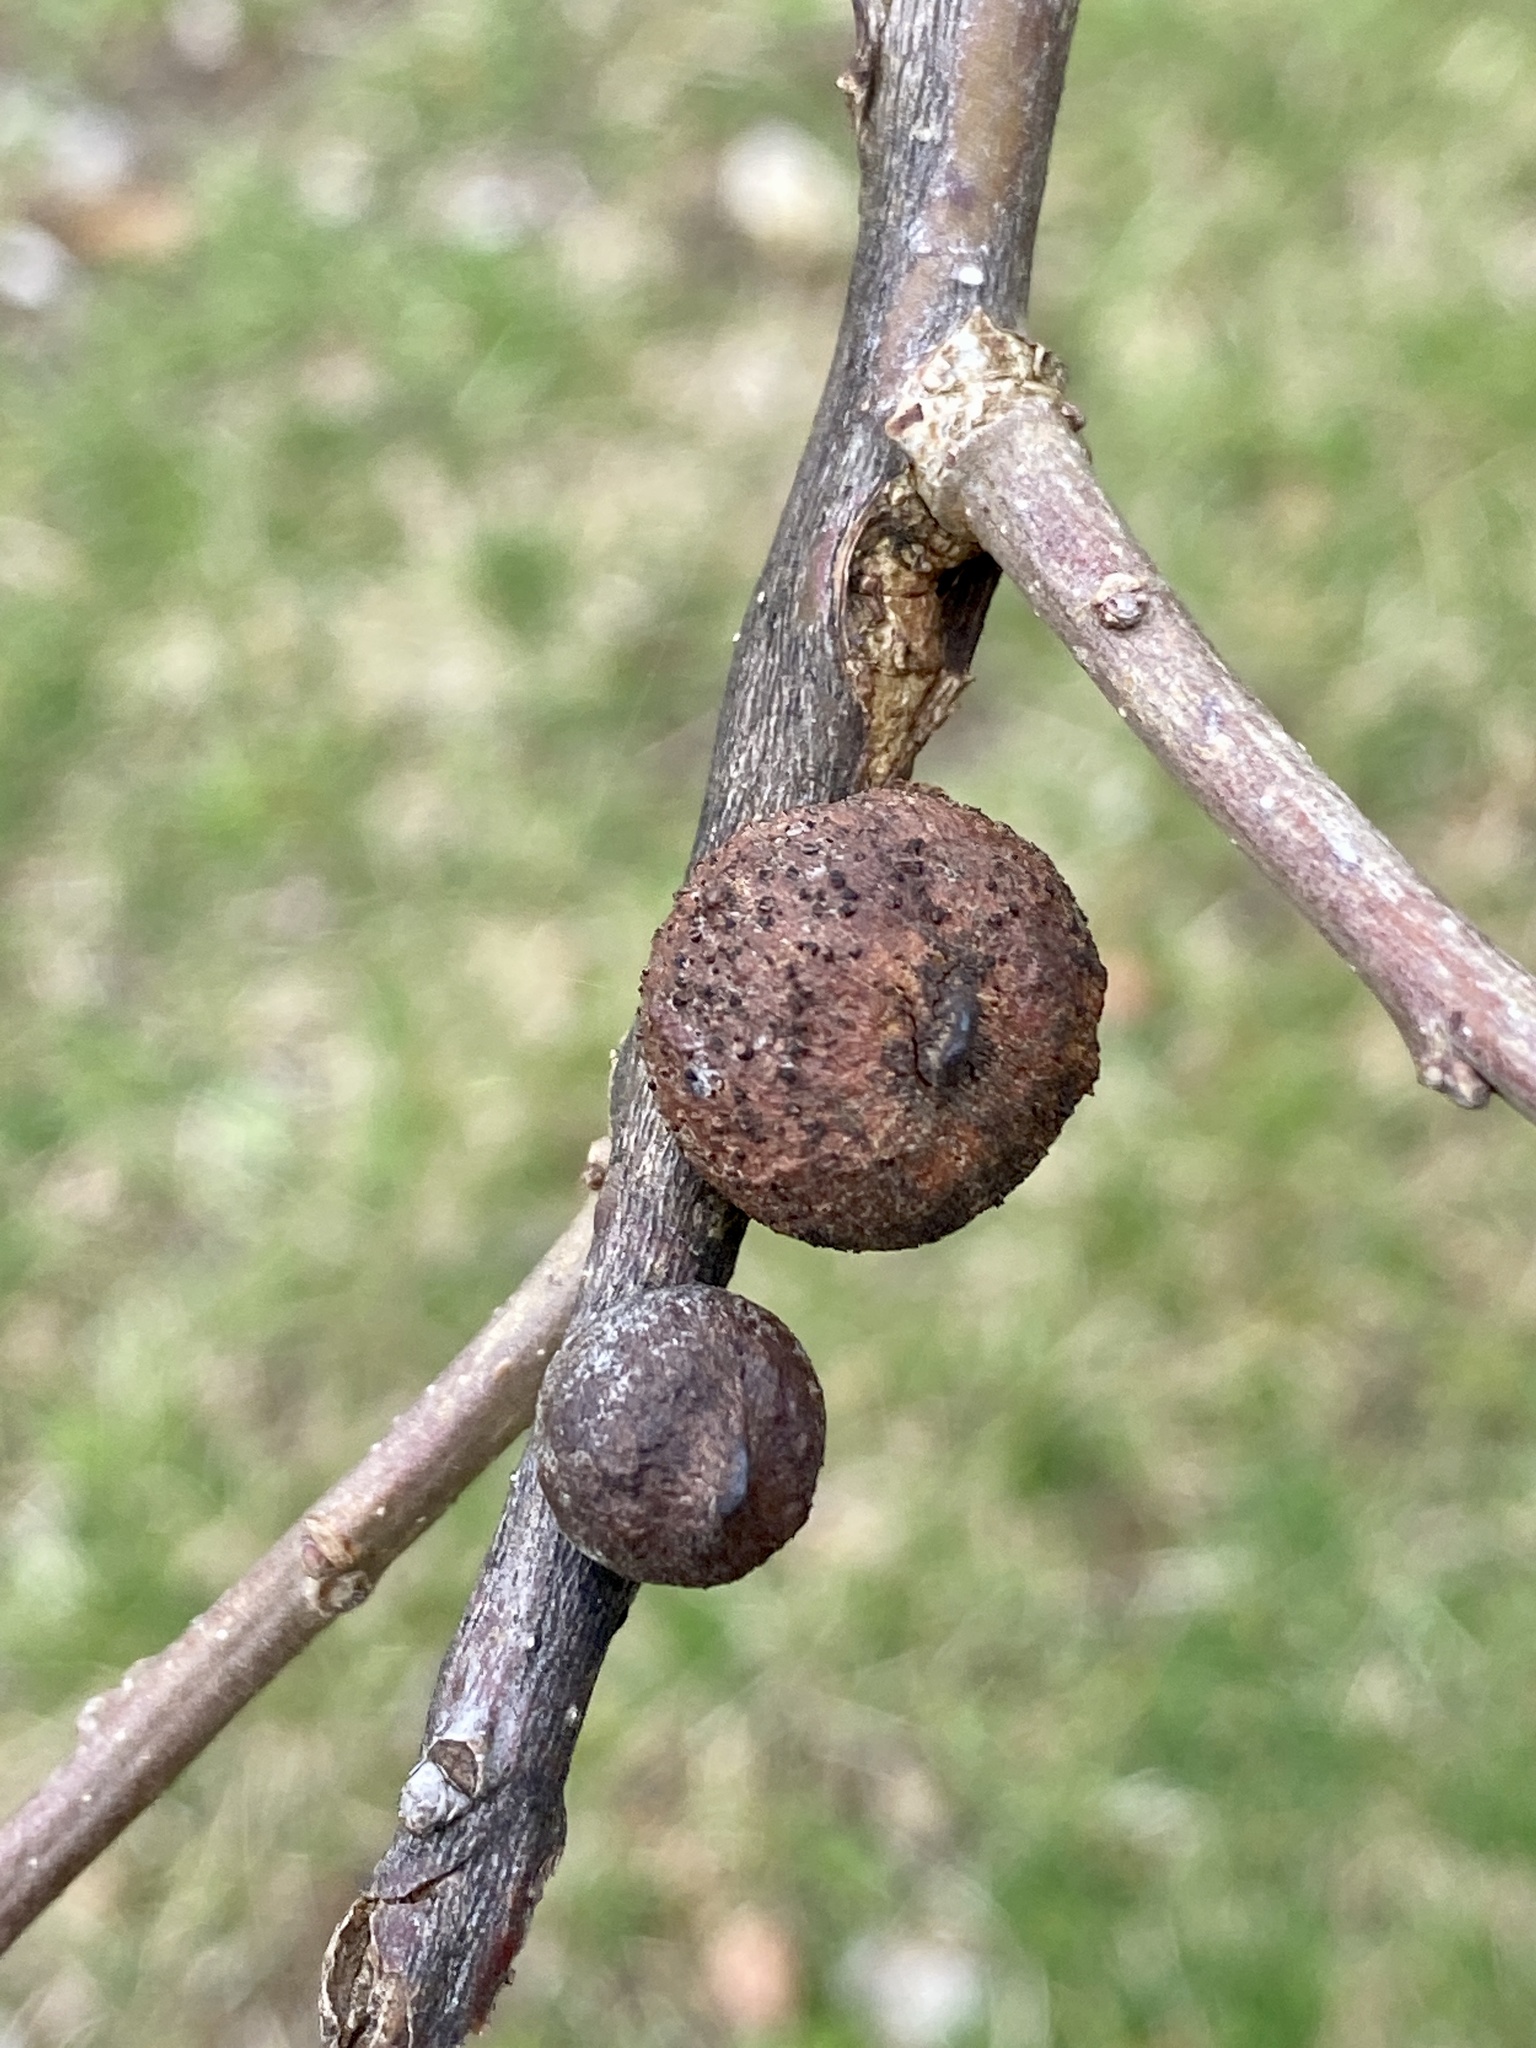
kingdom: Animalia
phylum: Arthropoda
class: Insecta
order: Hymenoptera
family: Cynipidae
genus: Disholcaspis
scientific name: Disholcaspis
